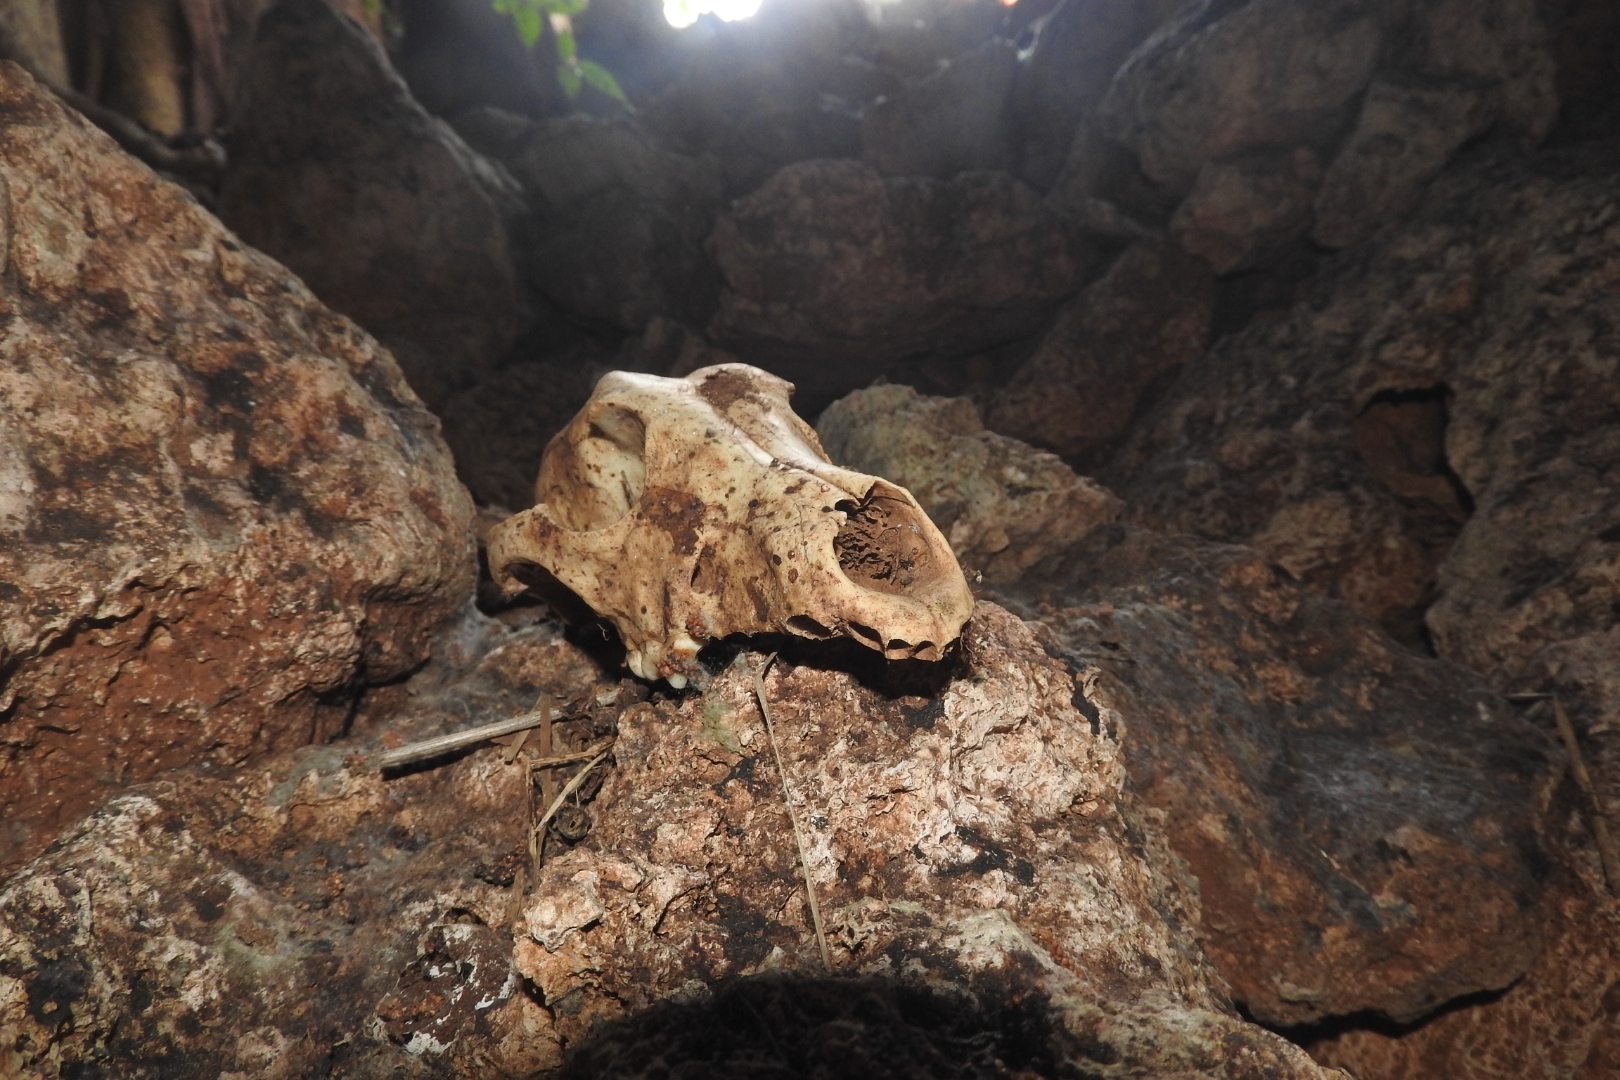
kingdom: Animalia
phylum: Chordata
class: Mammalia
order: Carnivora
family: Canidae
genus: Canis
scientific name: Canis lupus
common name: Gray wolf
